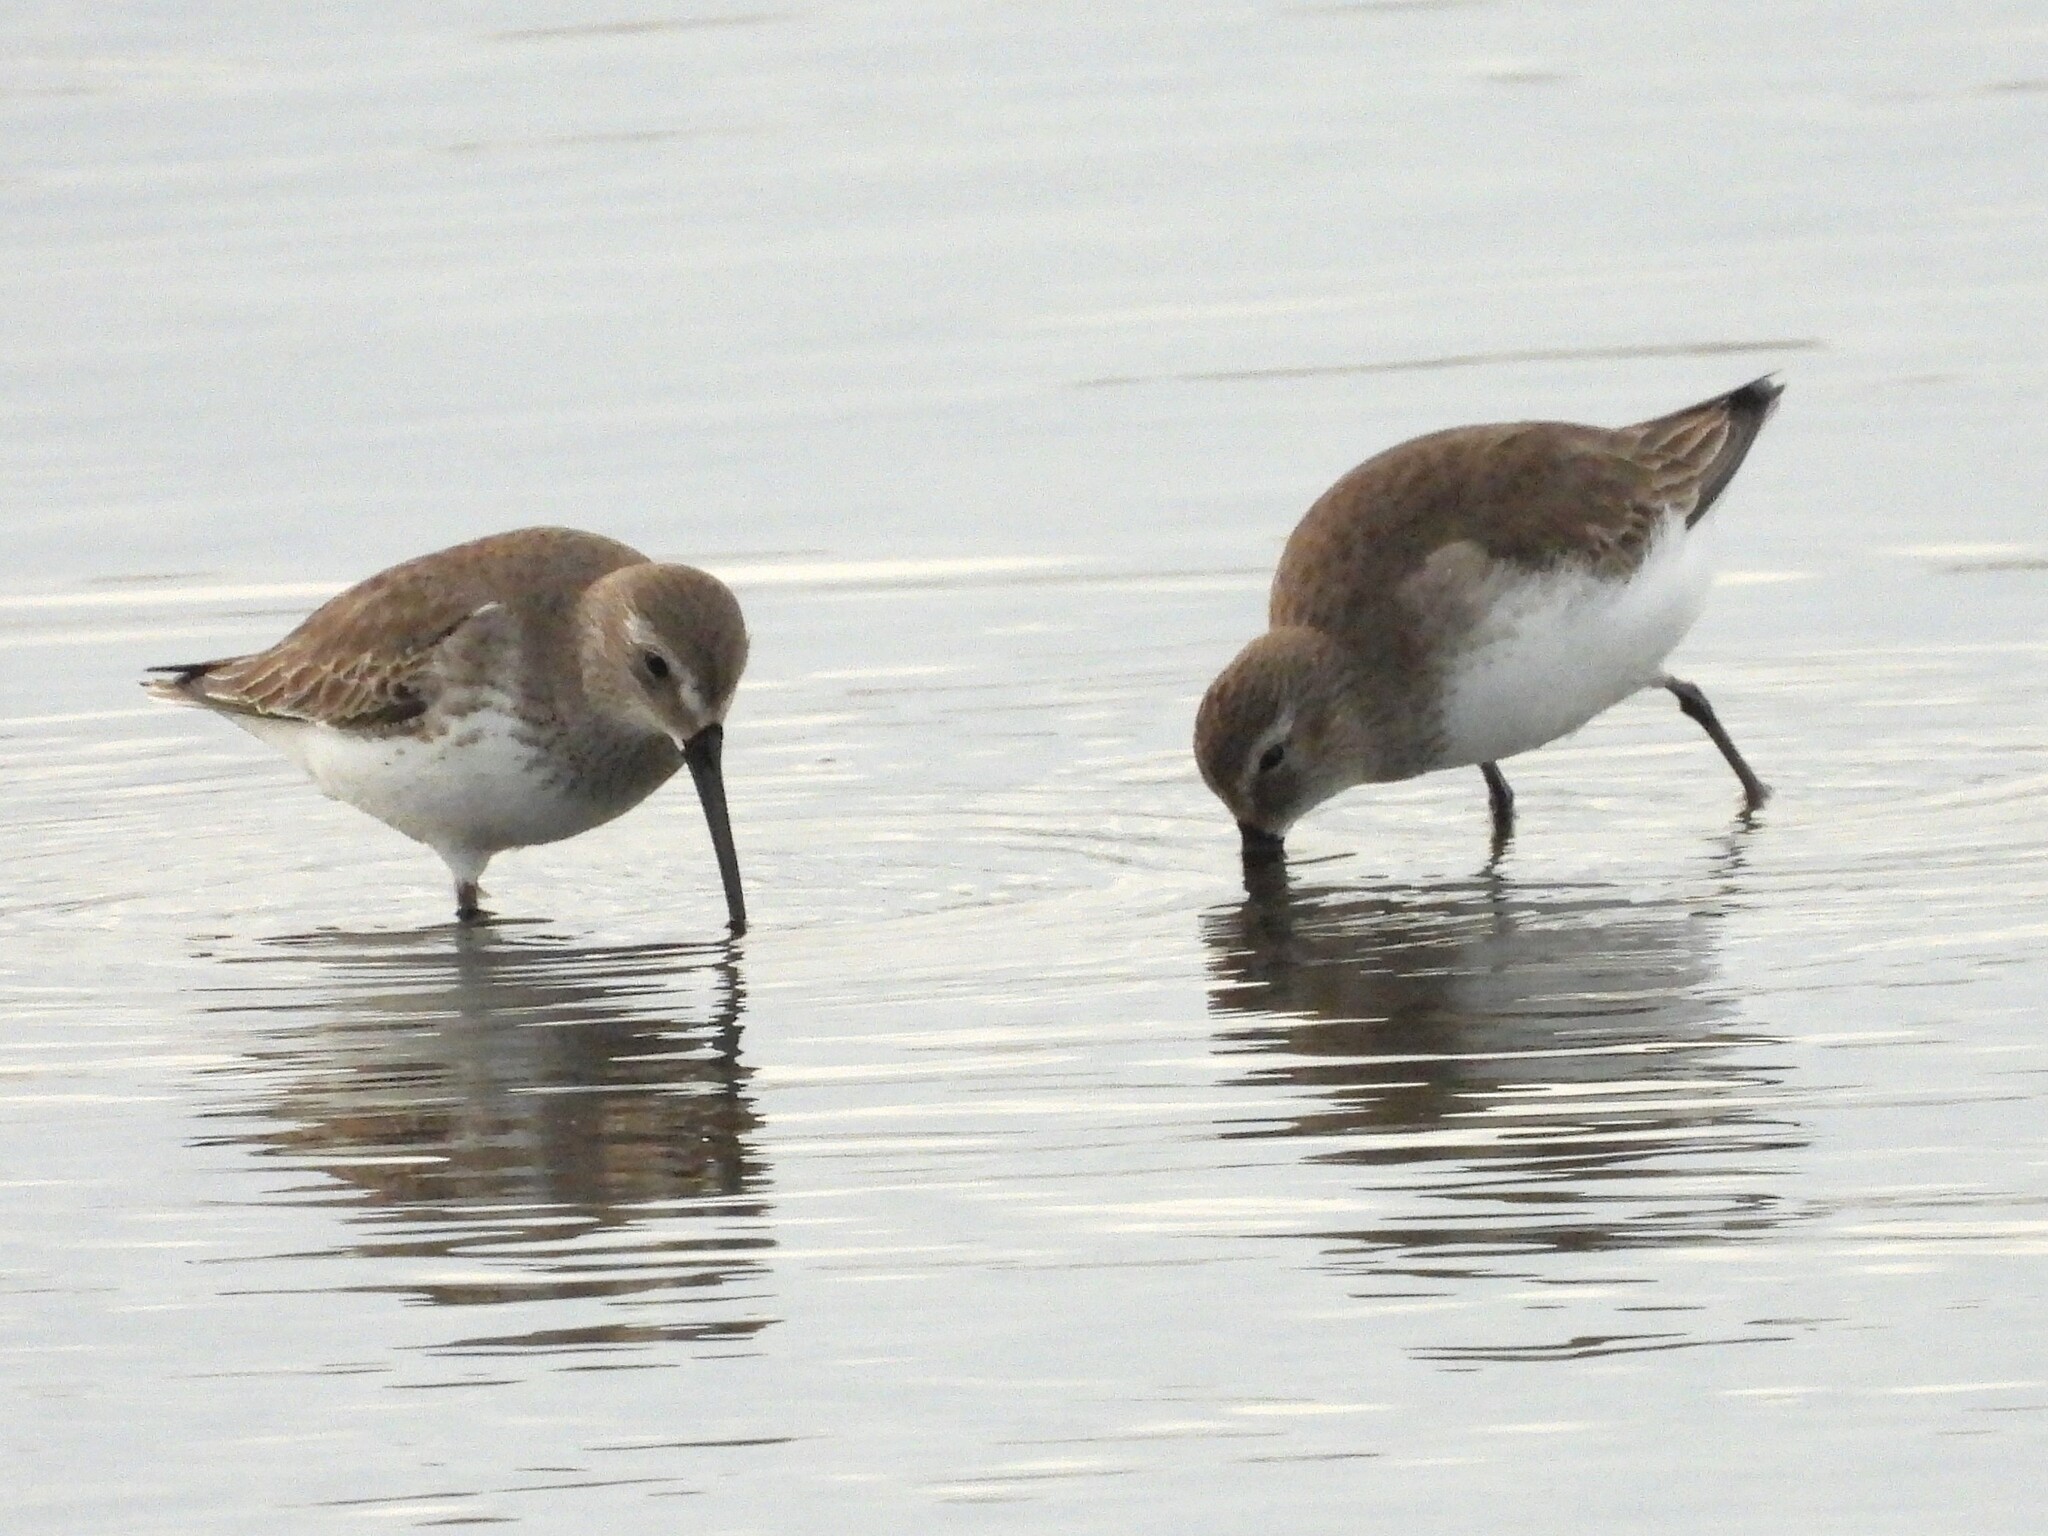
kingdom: Animalia
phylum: Chordata
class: Aves
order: Charadriiformes
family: Scolopacidae
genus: Calidris
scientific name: Calidris alpina
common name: Dunlin
